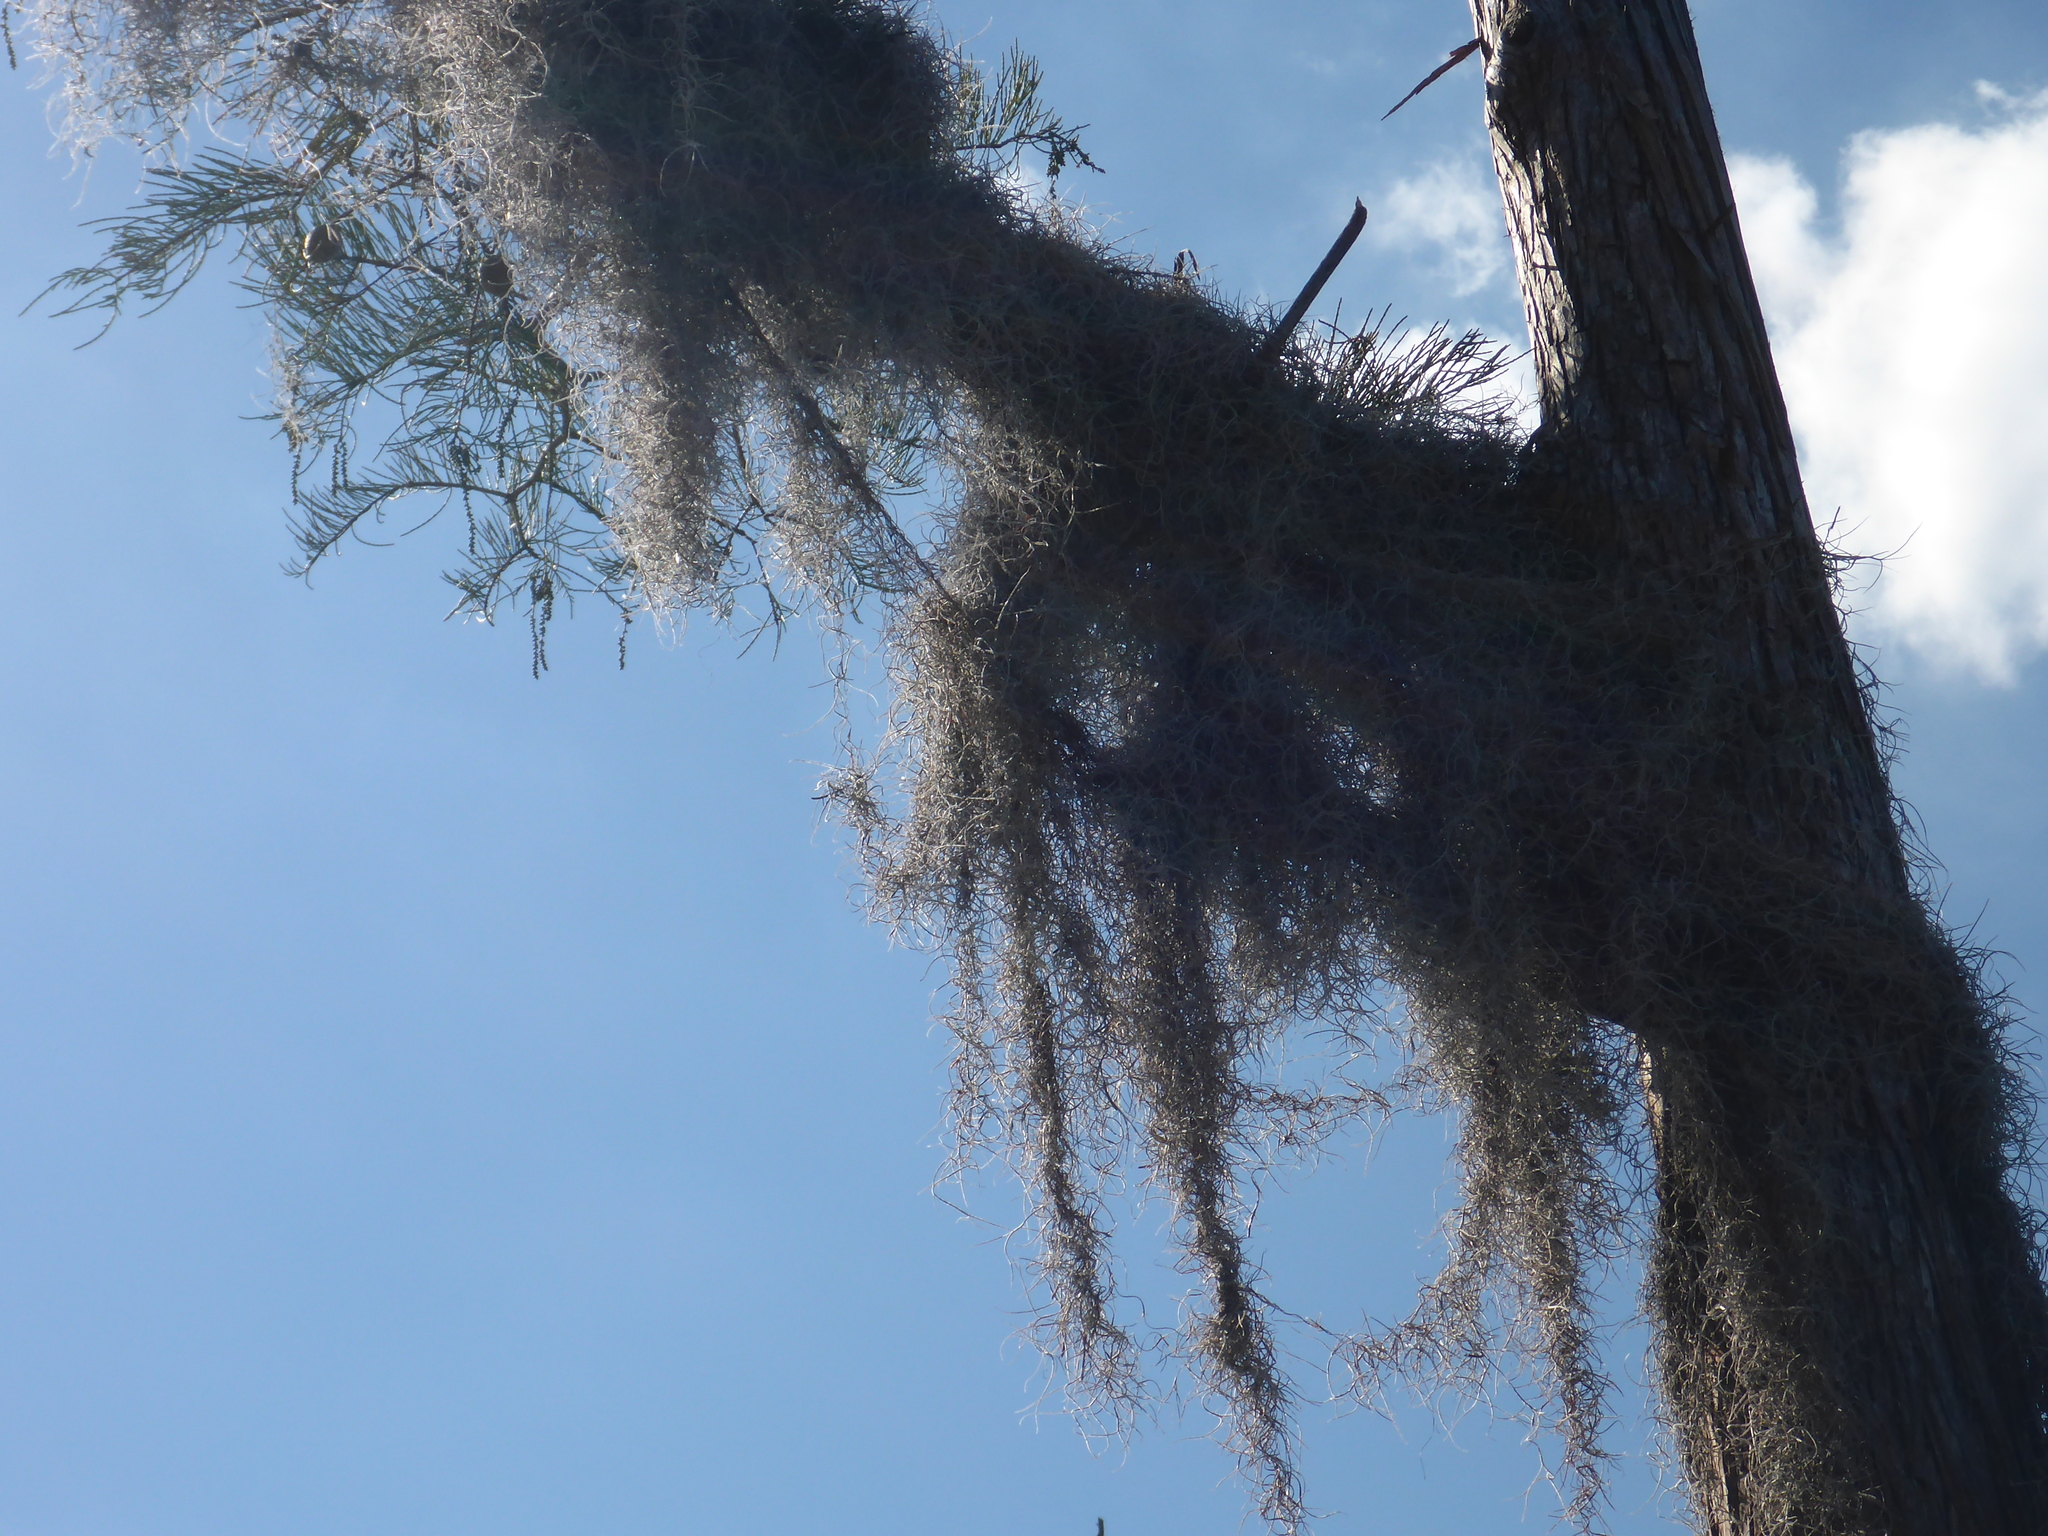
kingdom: Plantae
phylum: Tracheophyta
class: Liliopsida
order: Poales
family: Bromeliaceae
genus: Tillandsia
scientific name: Tillandsia usneoides
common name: Spanish moss
